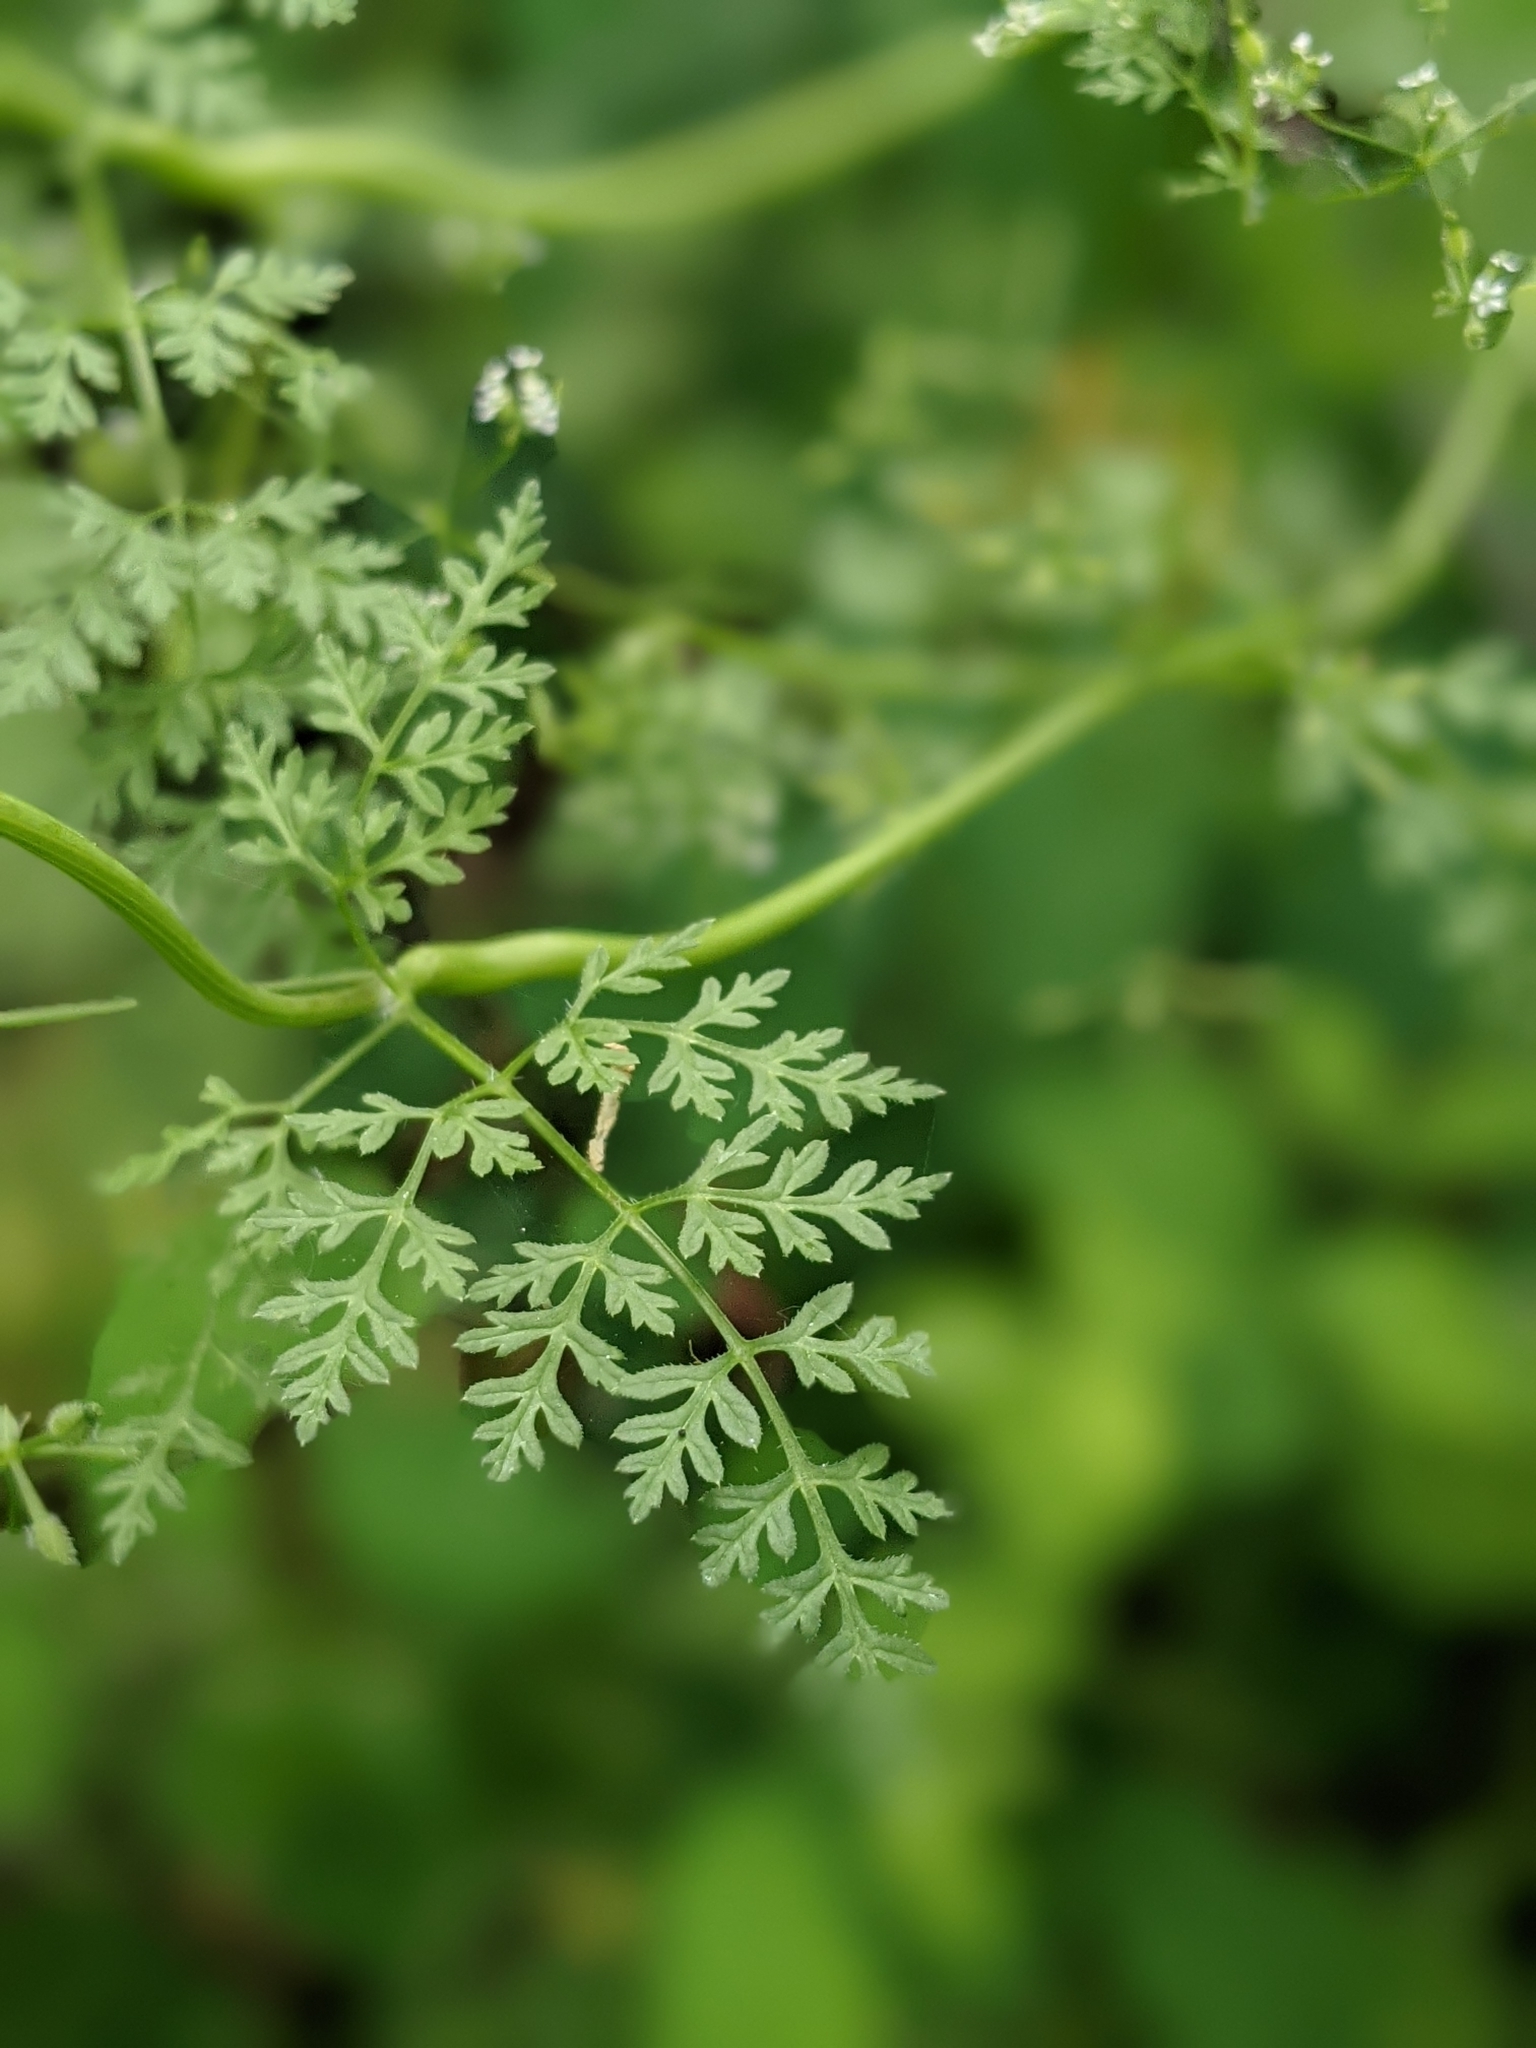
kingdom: Plantae
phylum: Tracheophyta
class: Magnoliopsida
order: Apiales
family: Apiaceae
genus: Anthriscus
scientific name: Anthriscus caucalis
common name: Bur chervil
